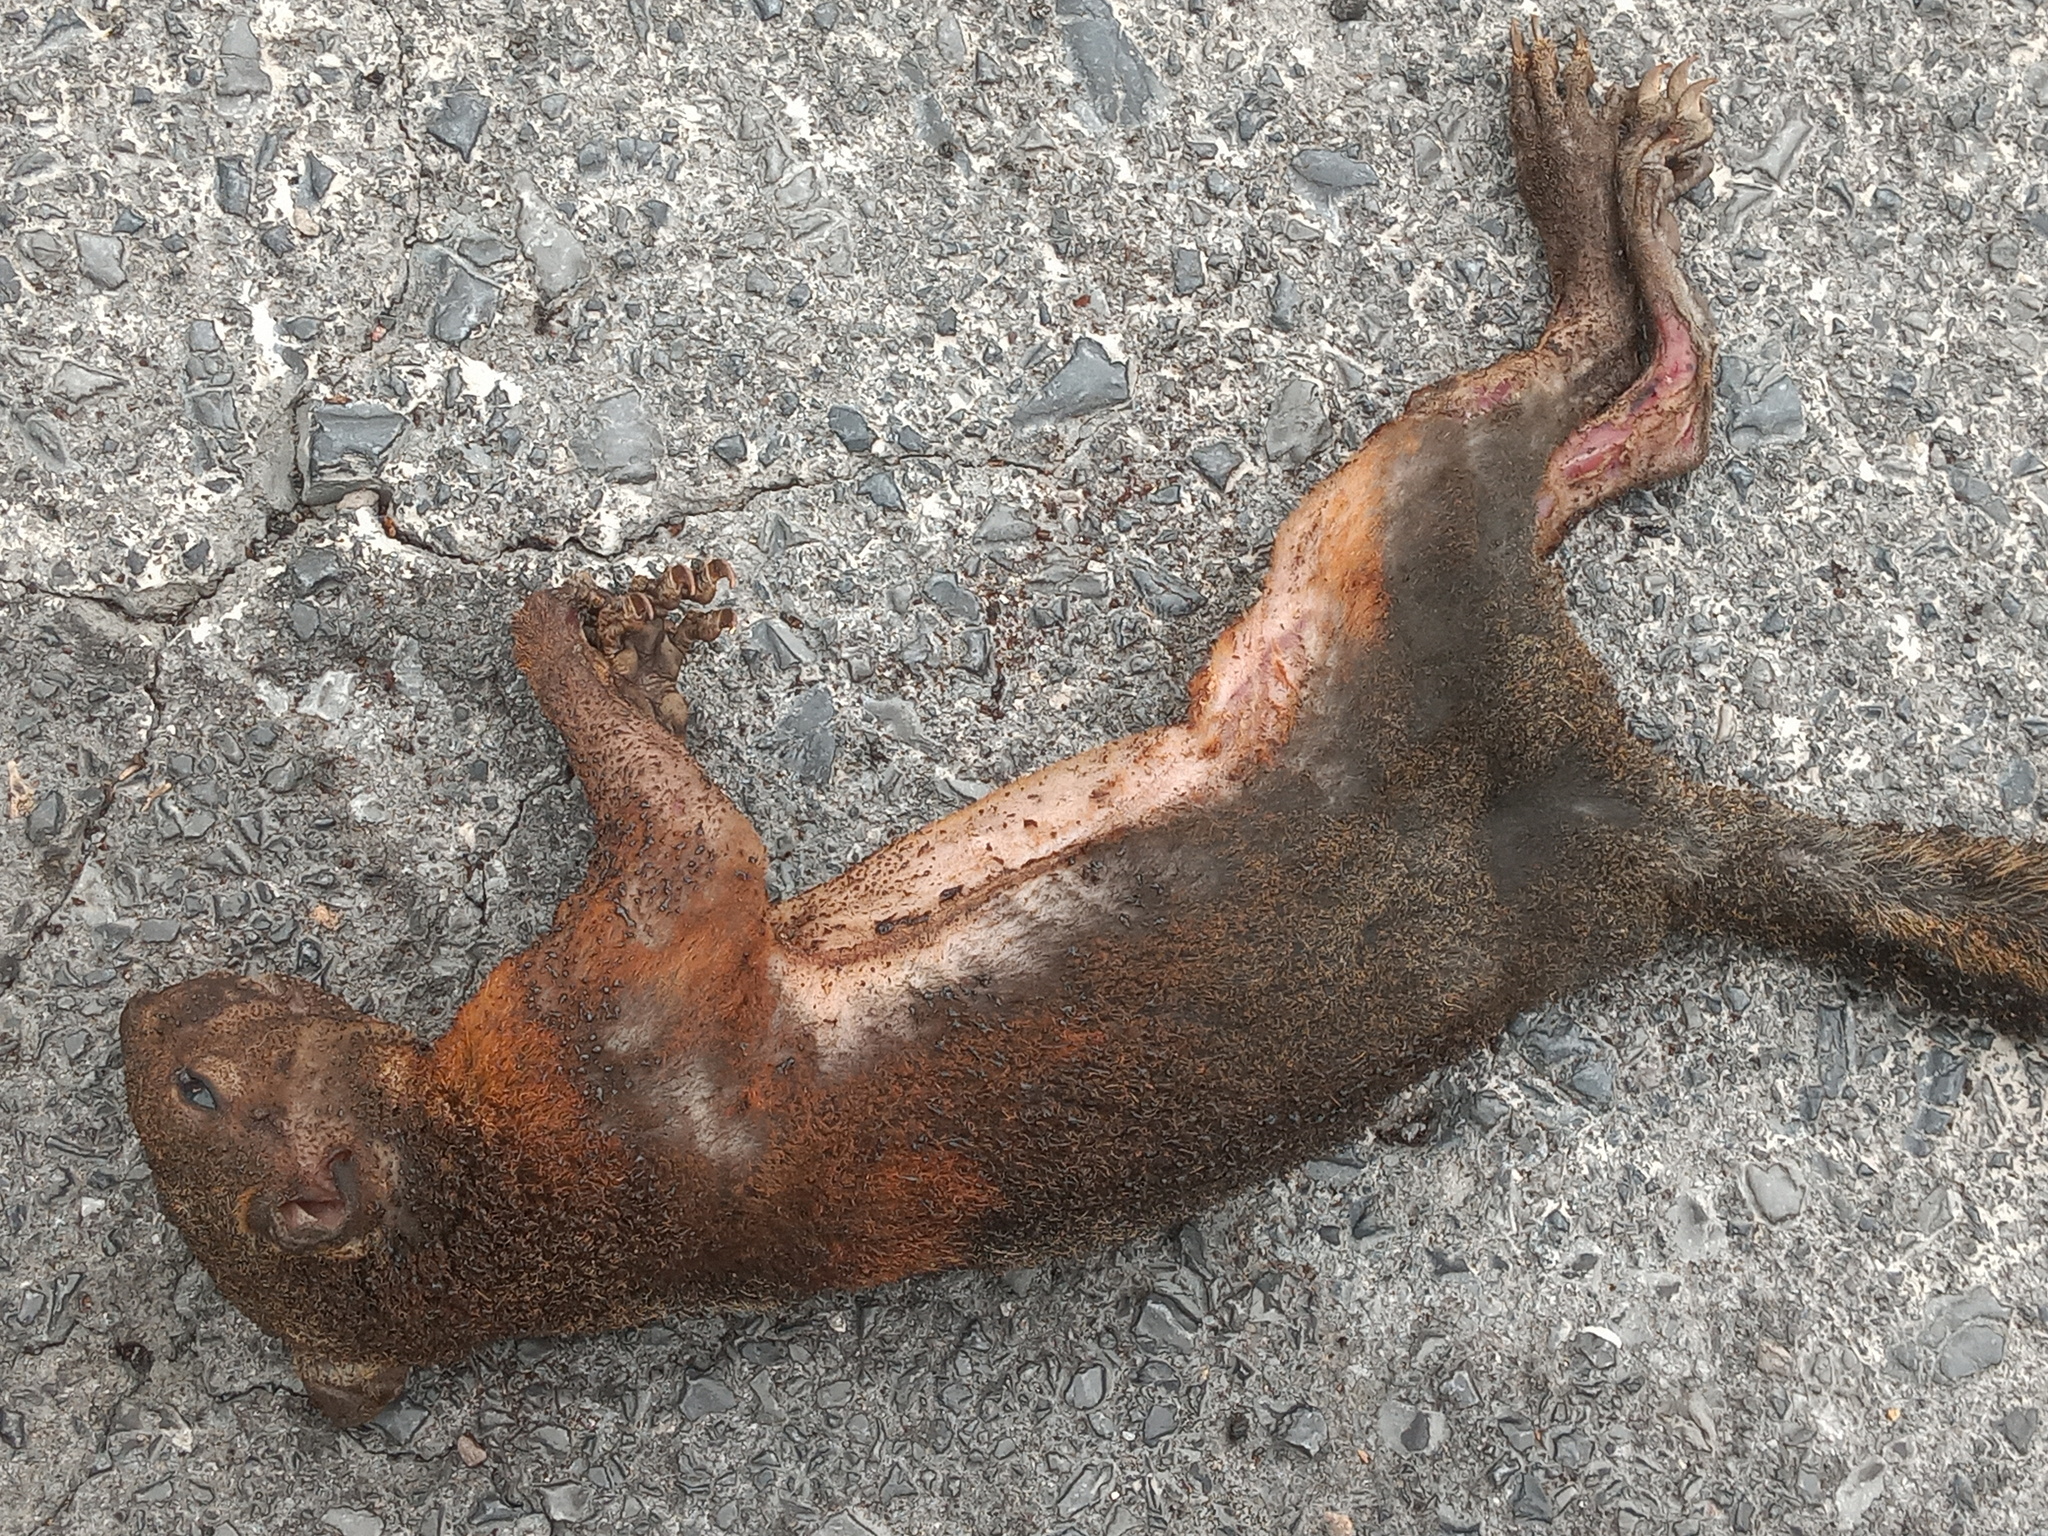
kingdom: Animalia
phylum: Chordata
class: Mammalia
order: Rodentia
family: Sciuridae
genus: Sciurus
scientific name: Sciurus aureogaster
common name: Red-bellied squirrel
